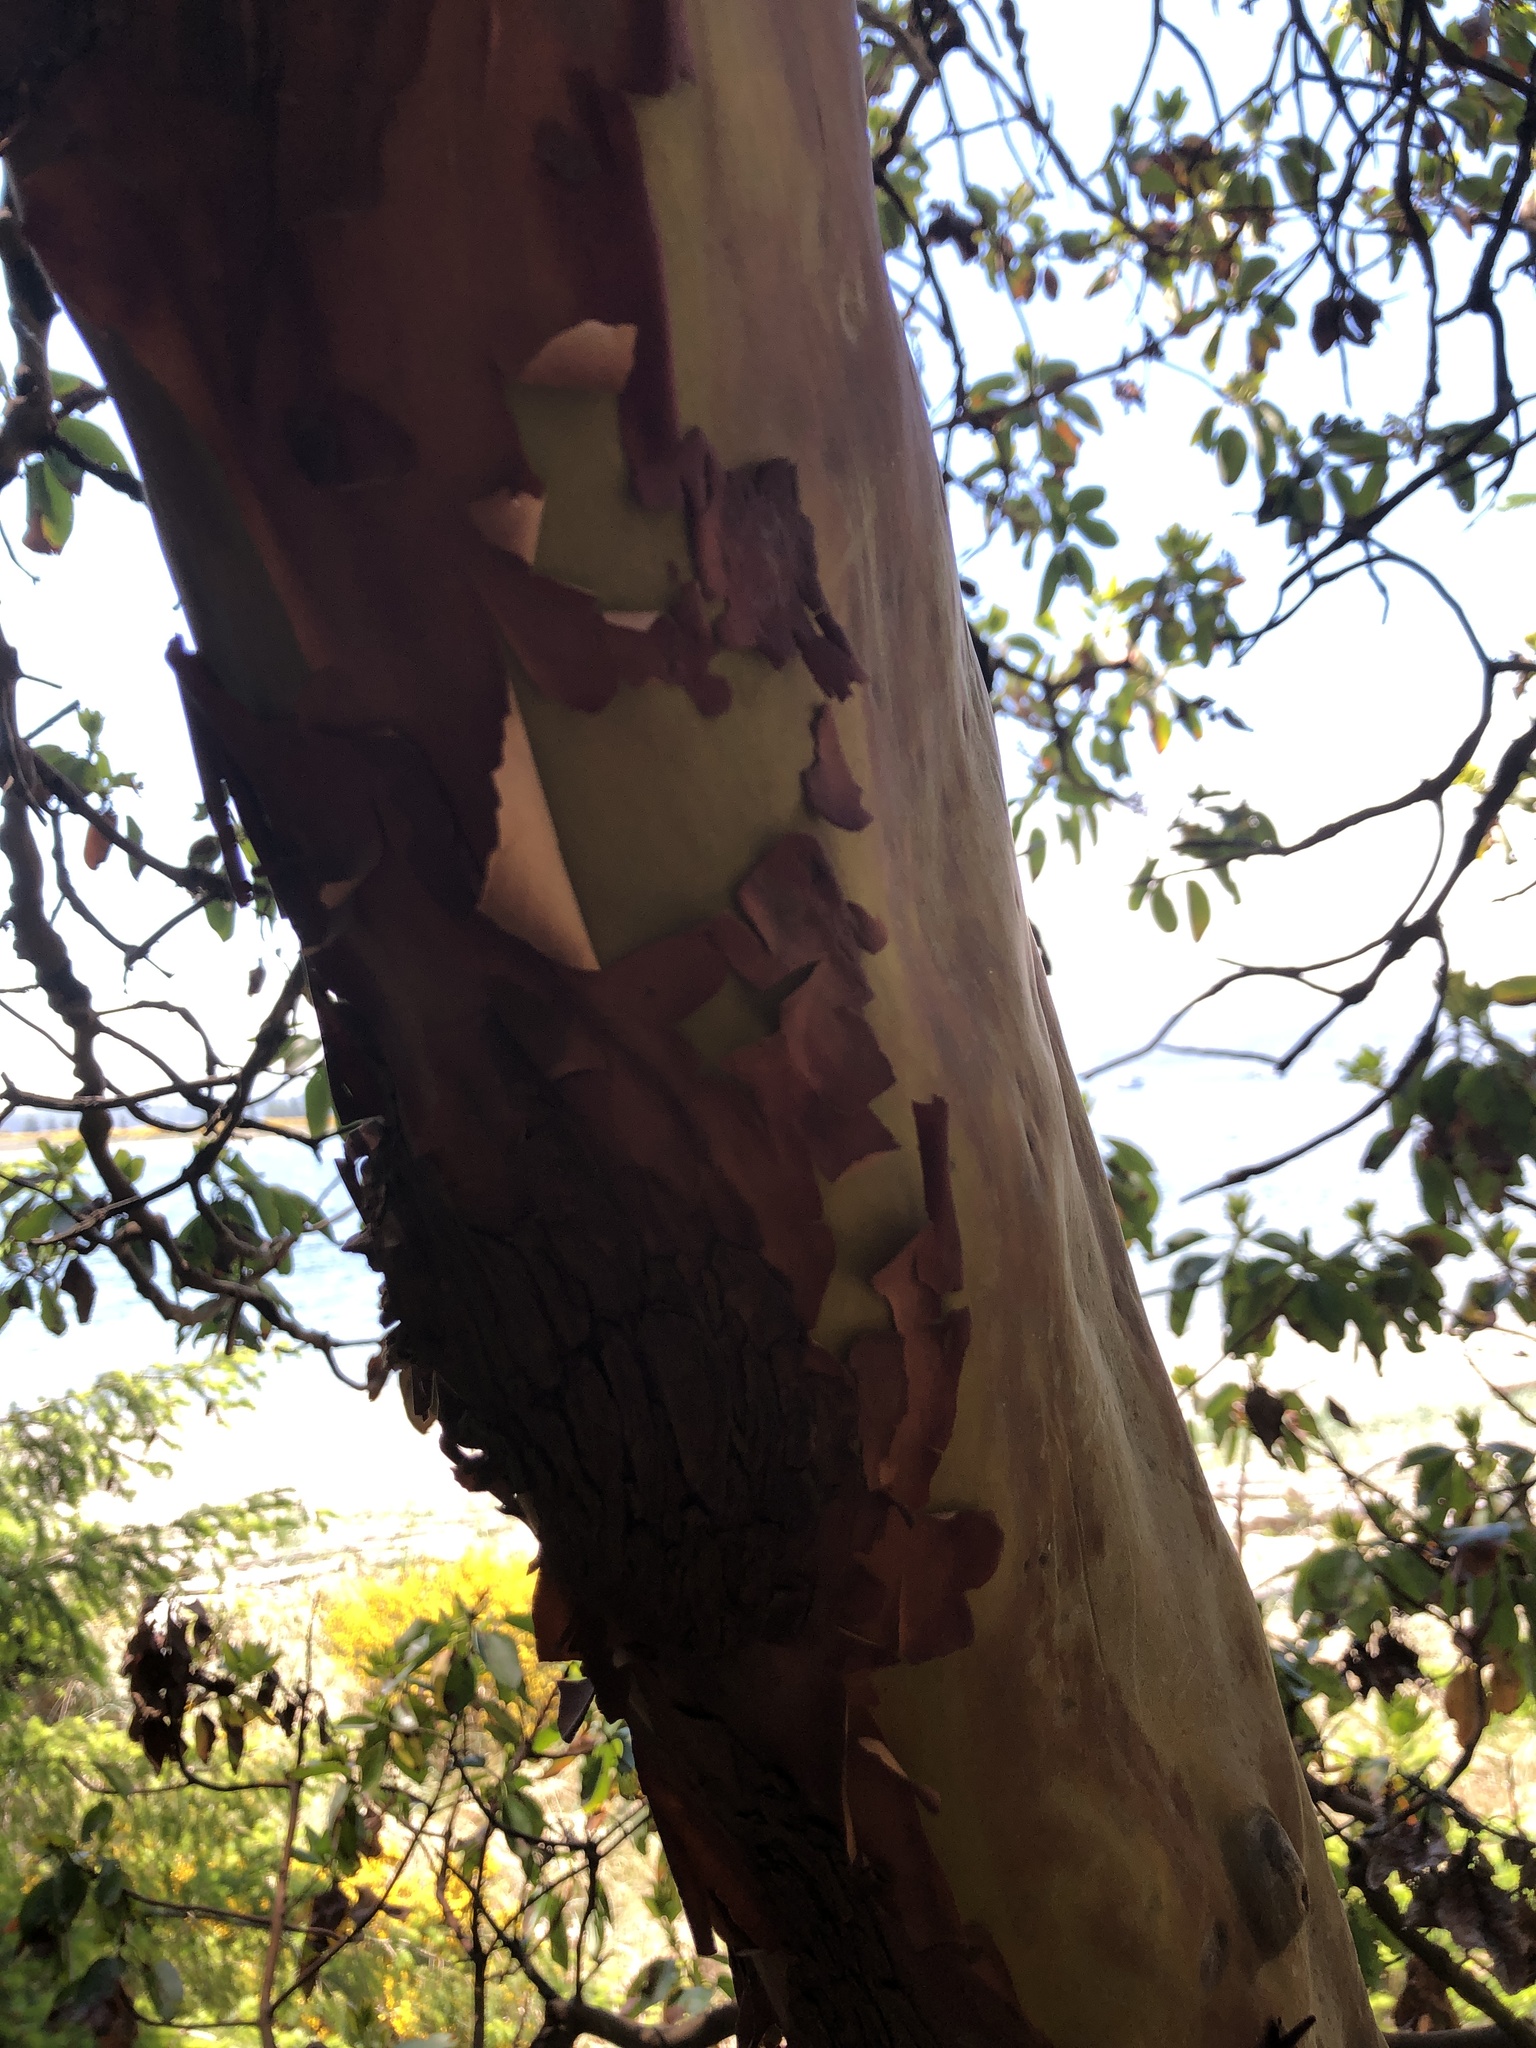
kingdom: Plantae
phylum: Tracheophyta
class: Magnoliopsida
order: Ericales
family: Ericaceae
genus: Arbutus
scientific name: Arbutus menziesii
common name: Pacific madrone
